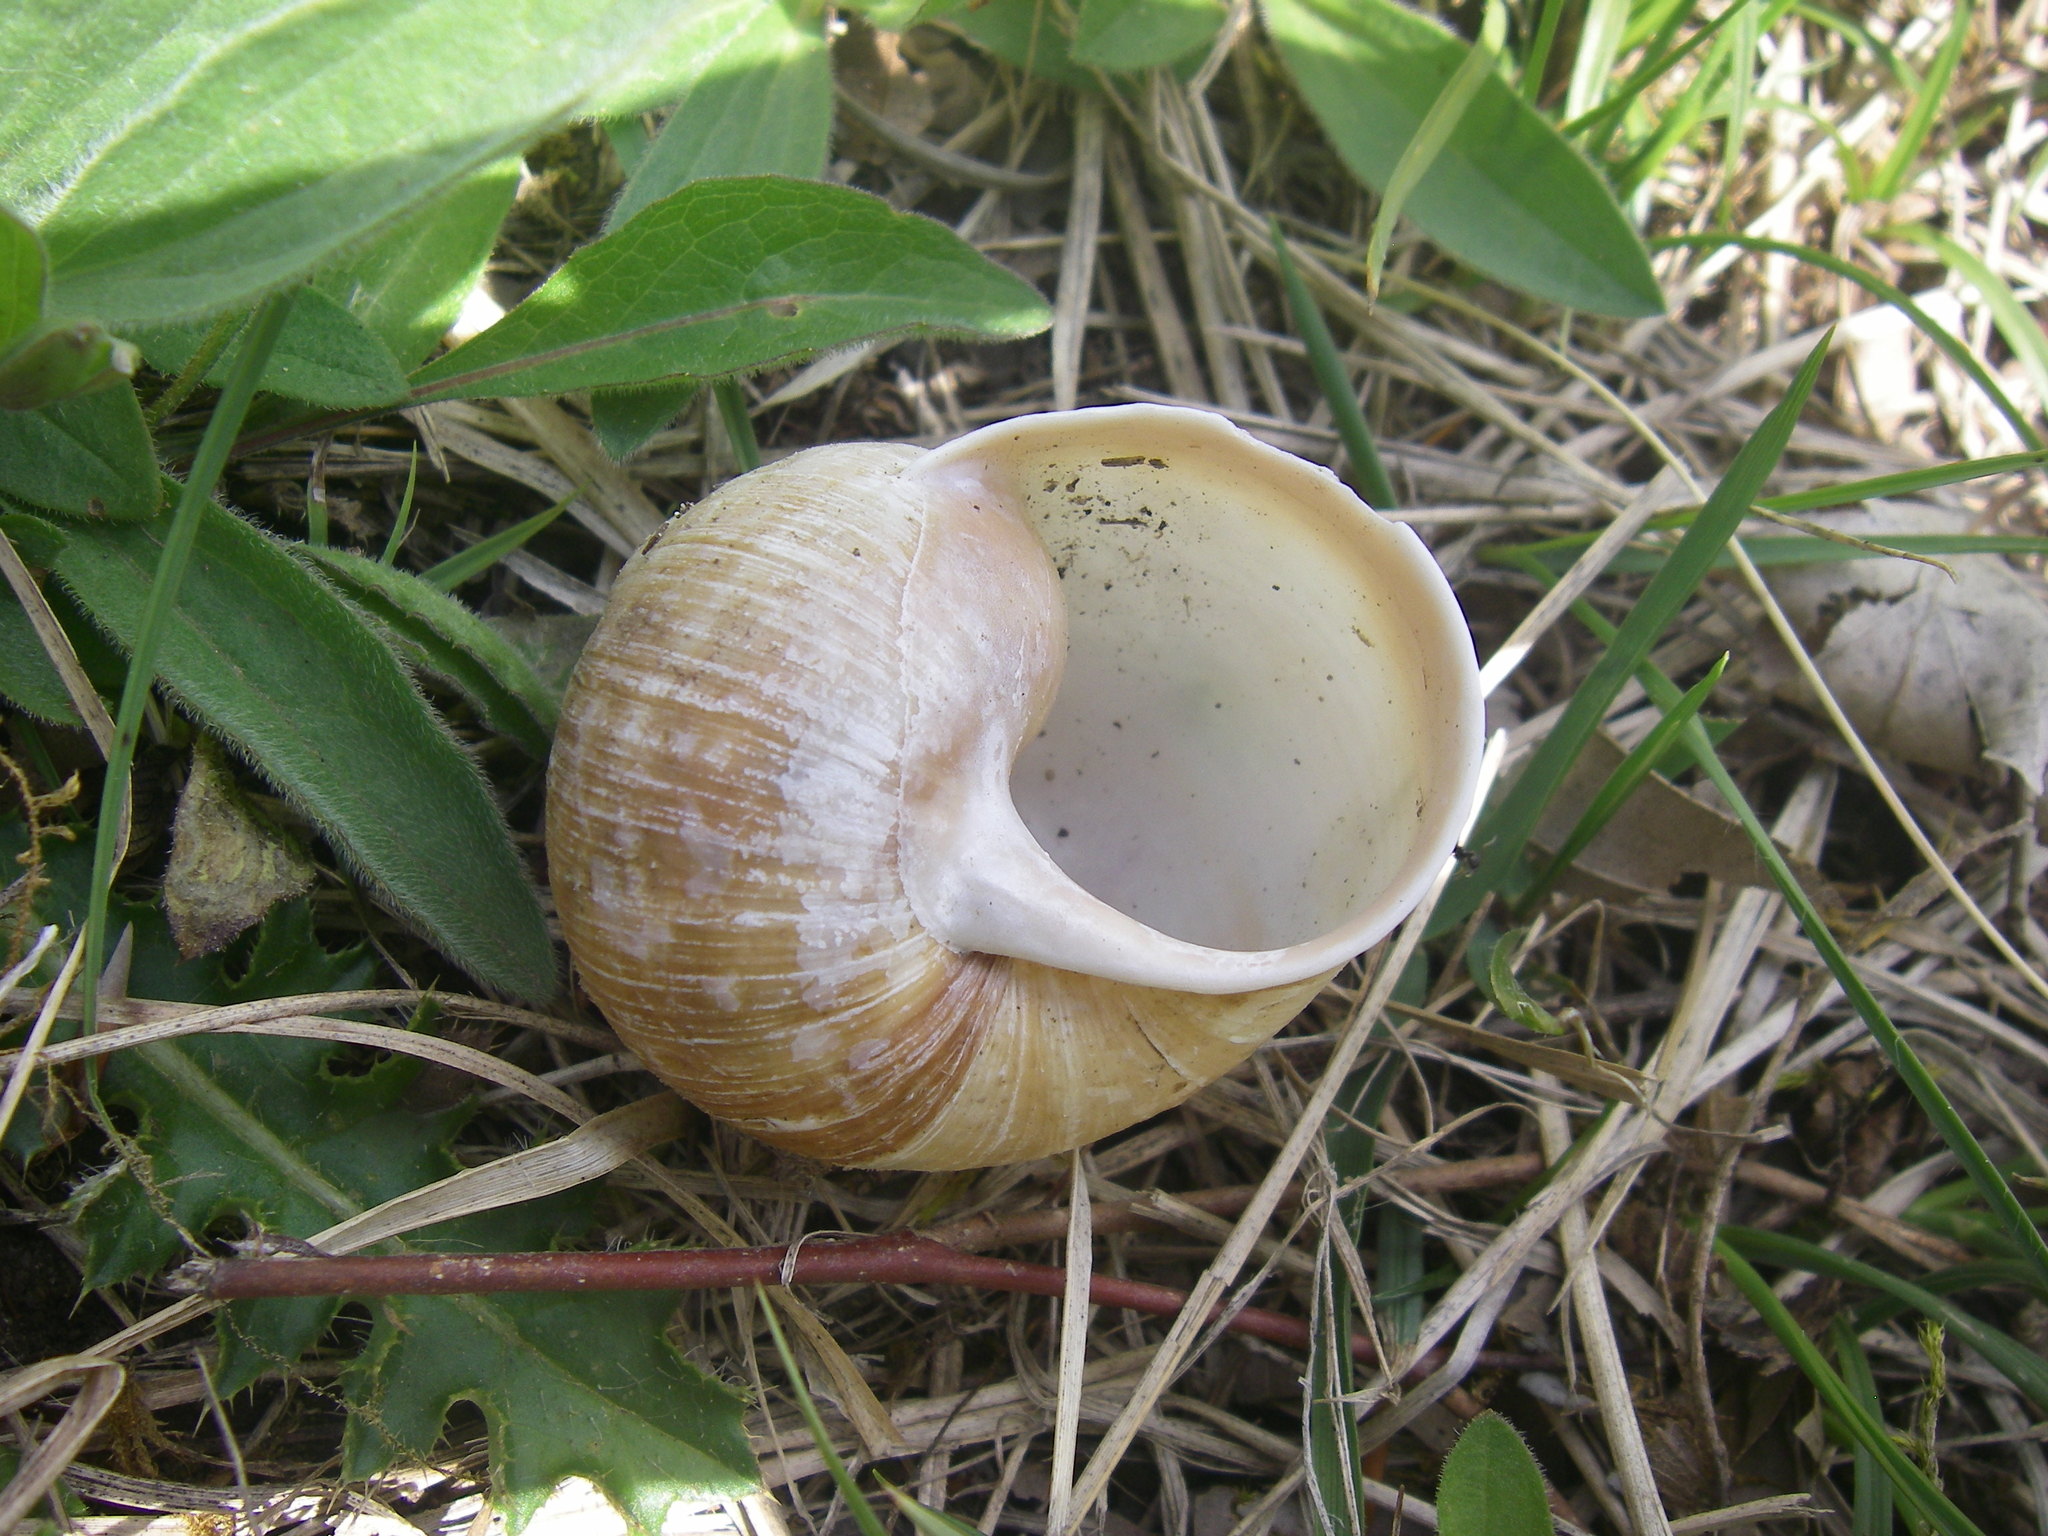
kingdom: Animalia
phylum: Mollusca
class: Gastropoda
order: Stylommatophora
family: Helicidae
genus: Helix
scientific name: Helix pomatia
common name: Roman snail
